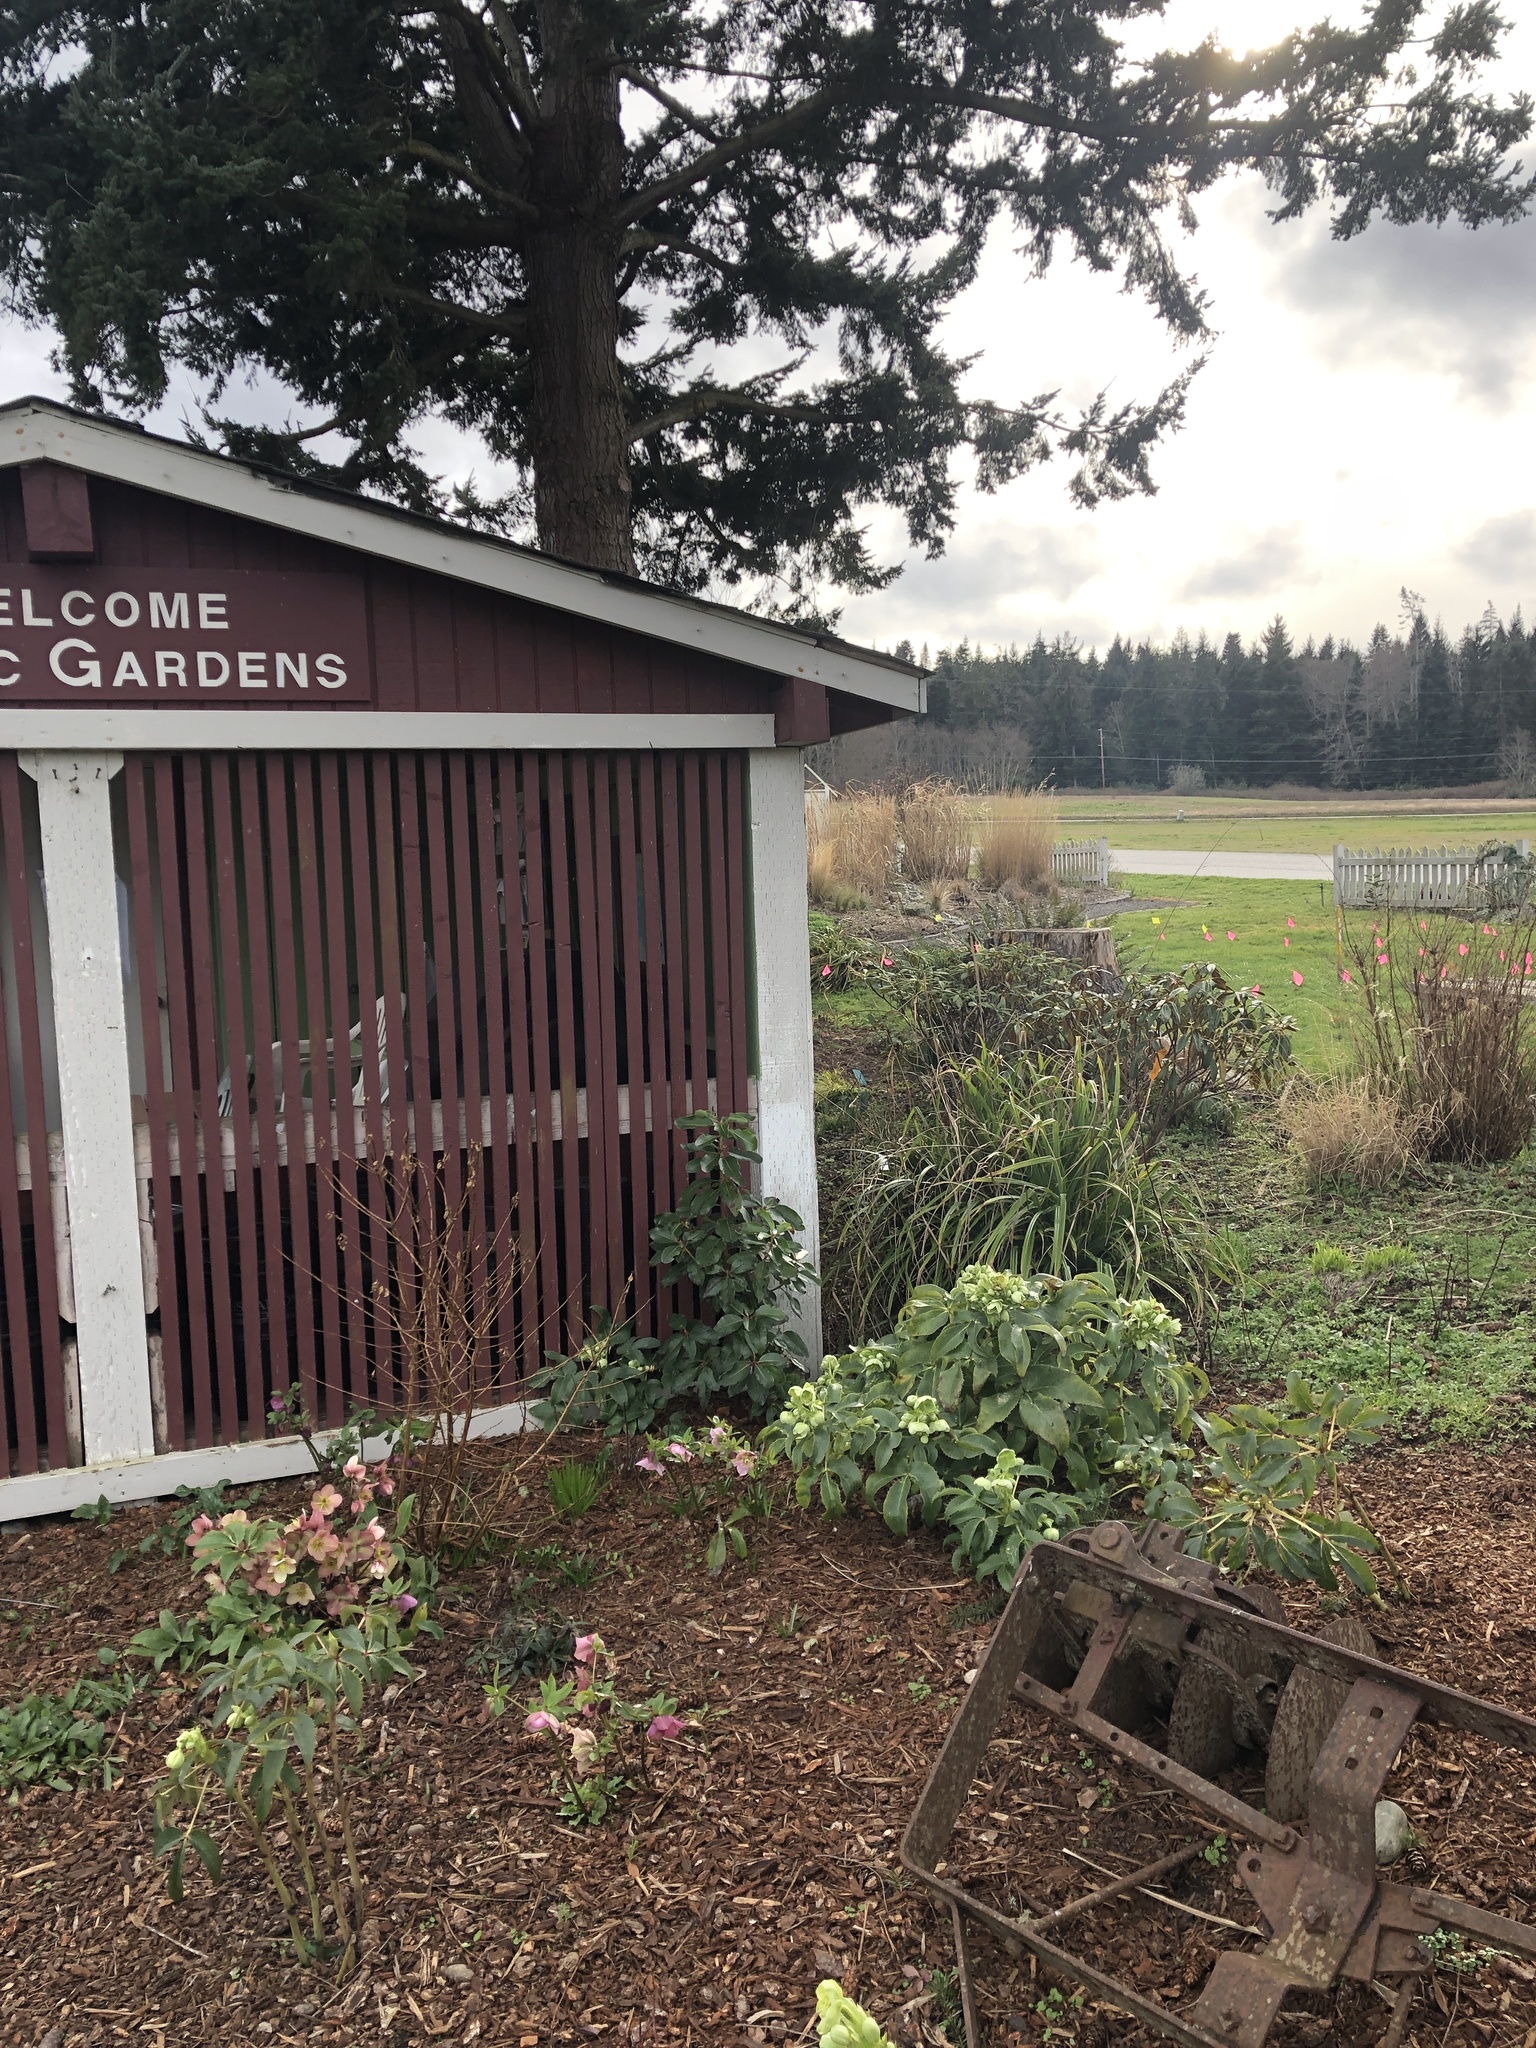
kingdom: Plantae
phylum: Tracheophyta
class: Liliopsida
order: Poales
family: Cyperaceae
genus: Carex
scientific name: Carex pendula
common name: Pendulous sedge
